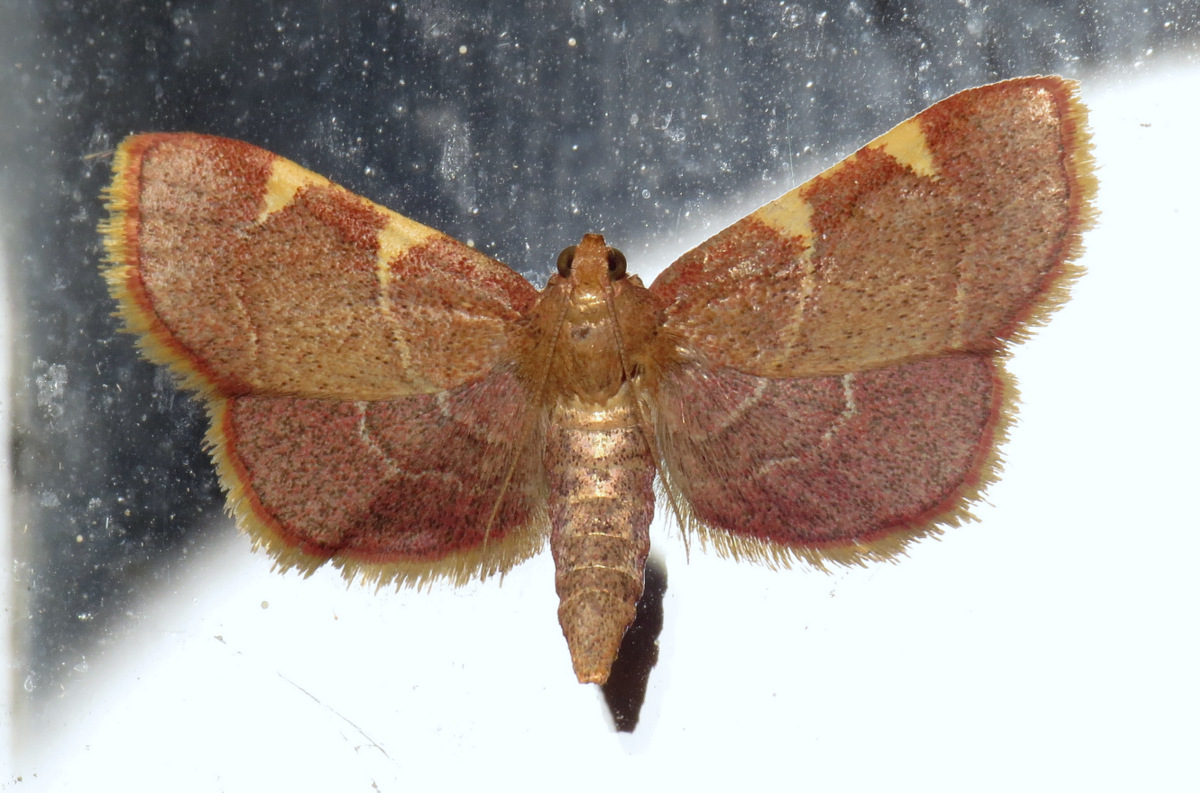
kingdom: Animalia
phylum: Arthropoda
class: Insecta
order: Lepidoptera
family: Pyralidae
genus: Hypsopygia
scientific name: Hypsopygia olinalis
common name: Yellow-fringed dolichomia moth
